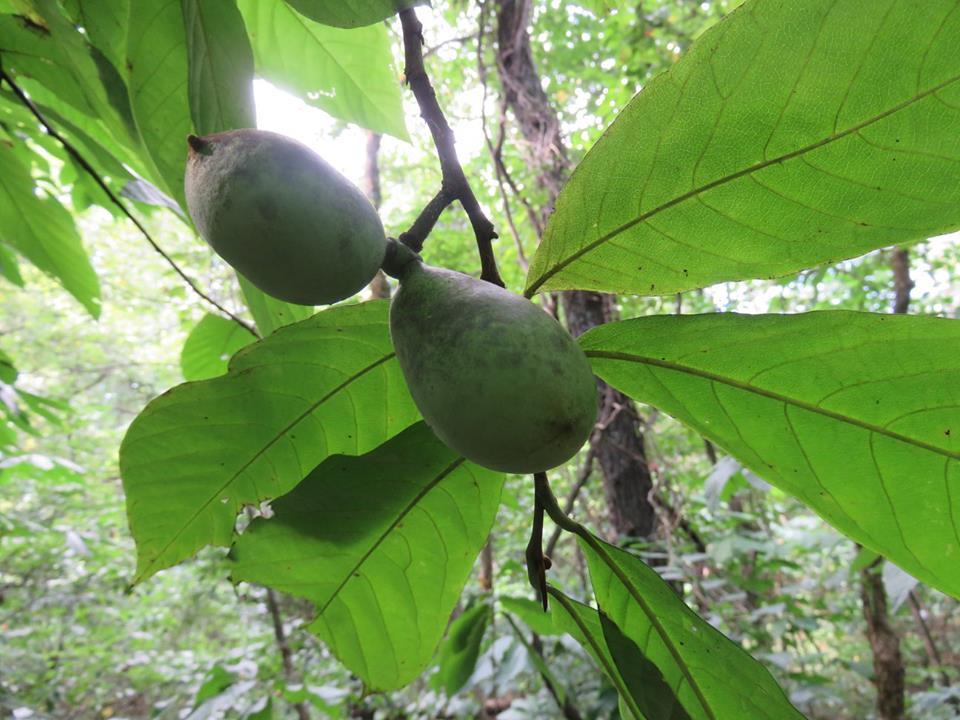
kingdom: Plantae
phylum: Tracheophyta
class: Magnoliopsida
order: Magnoliales
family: Annonaceae
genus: Asimina
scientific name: Asimina triloba
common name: Dog-banana
